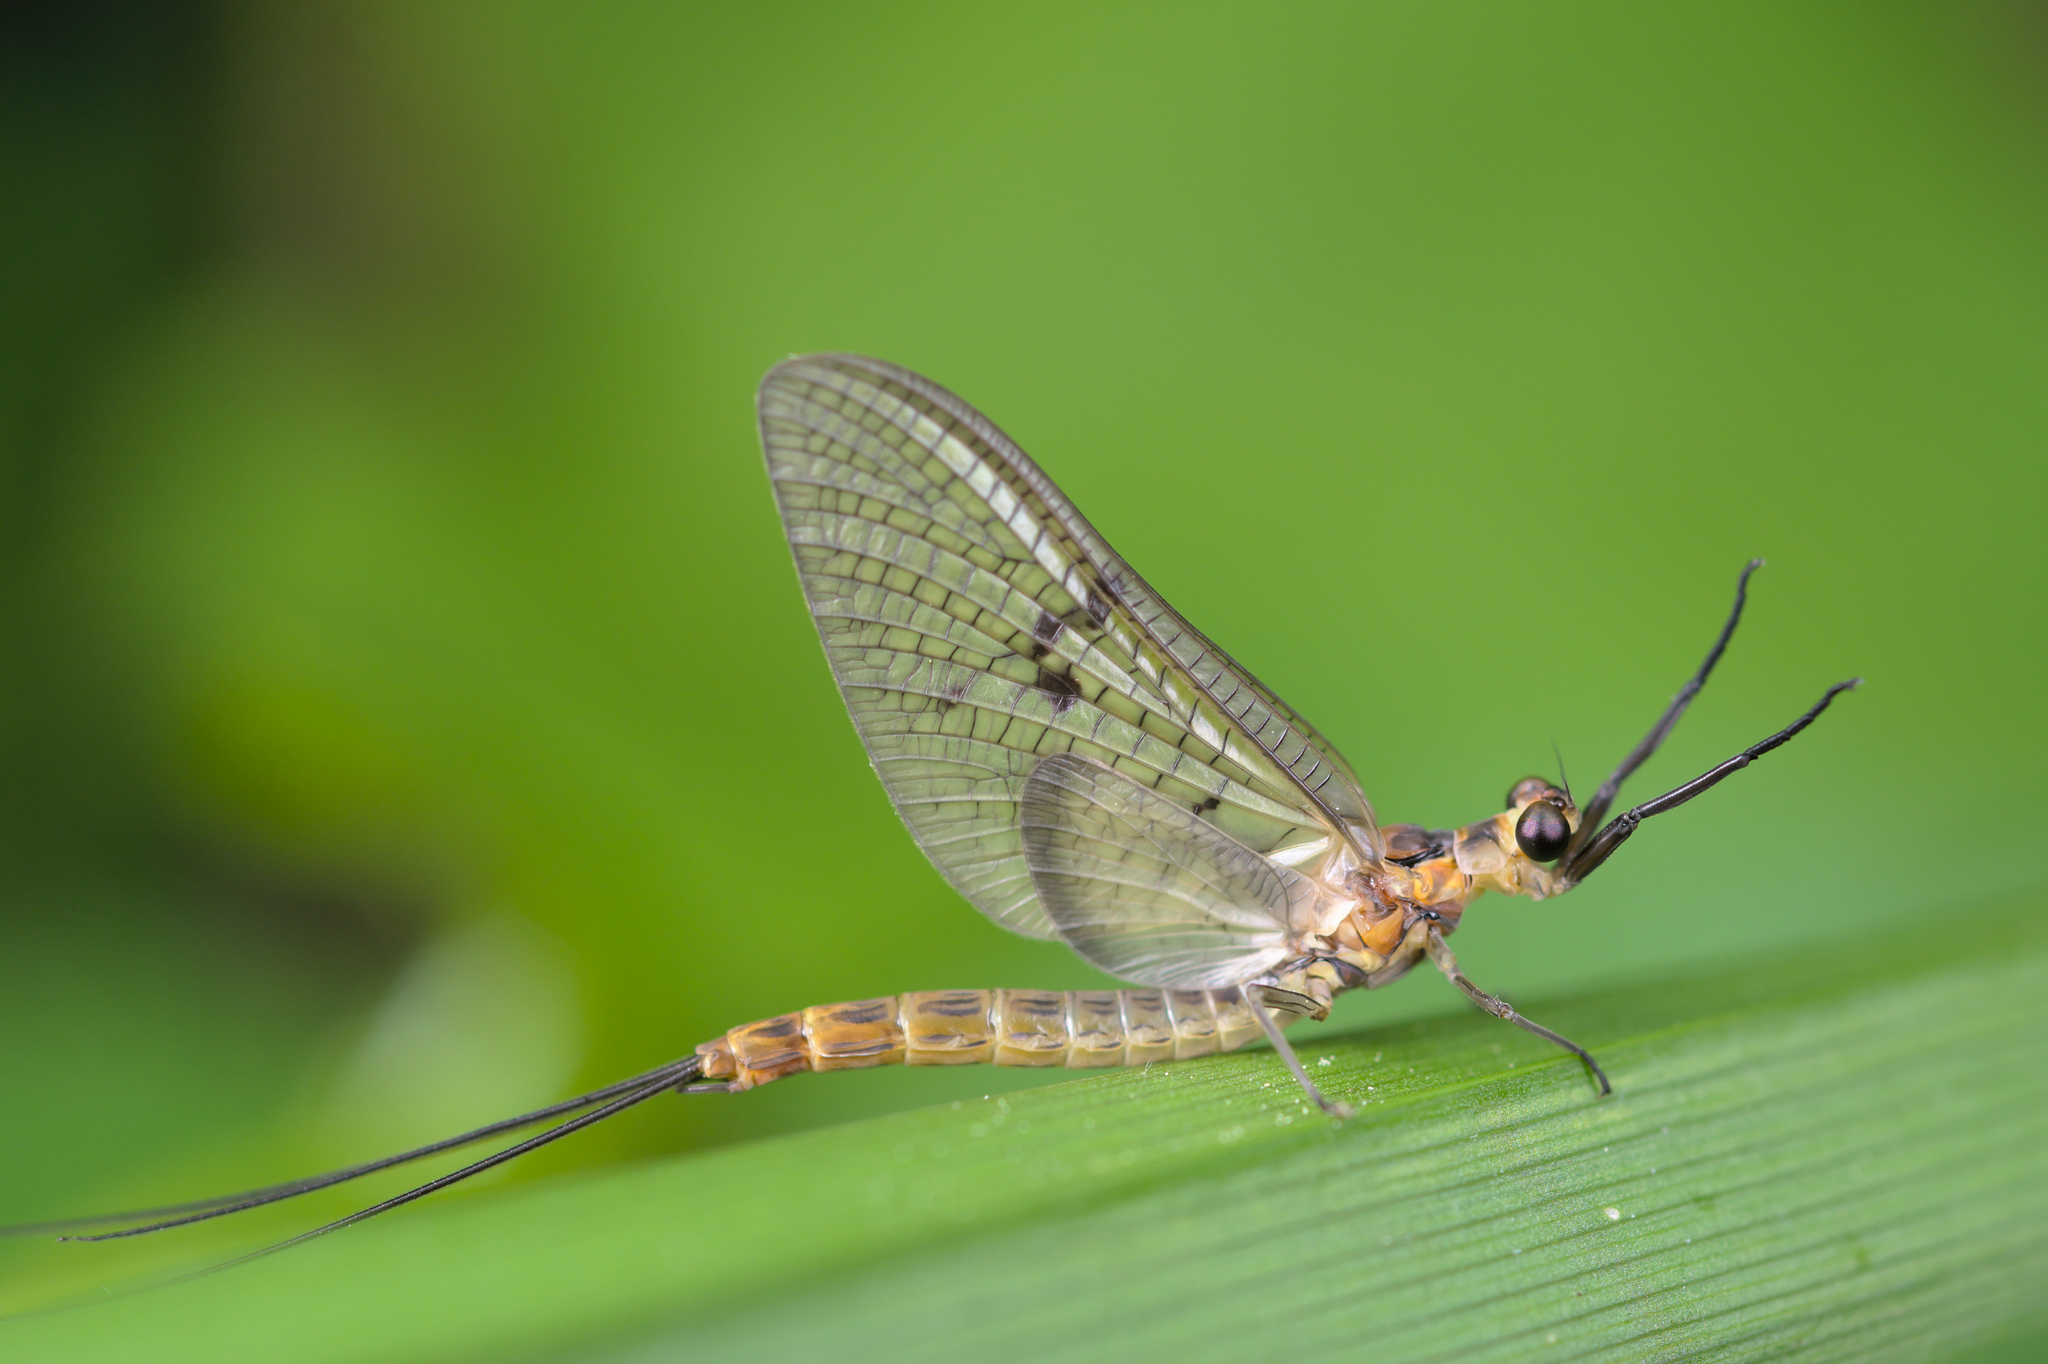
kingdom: Animalia
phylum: Arthropoda
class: Insecta
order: Ephemeroptera
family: Ephemeridae
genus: Ephemera
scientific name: Ephemera lineata
